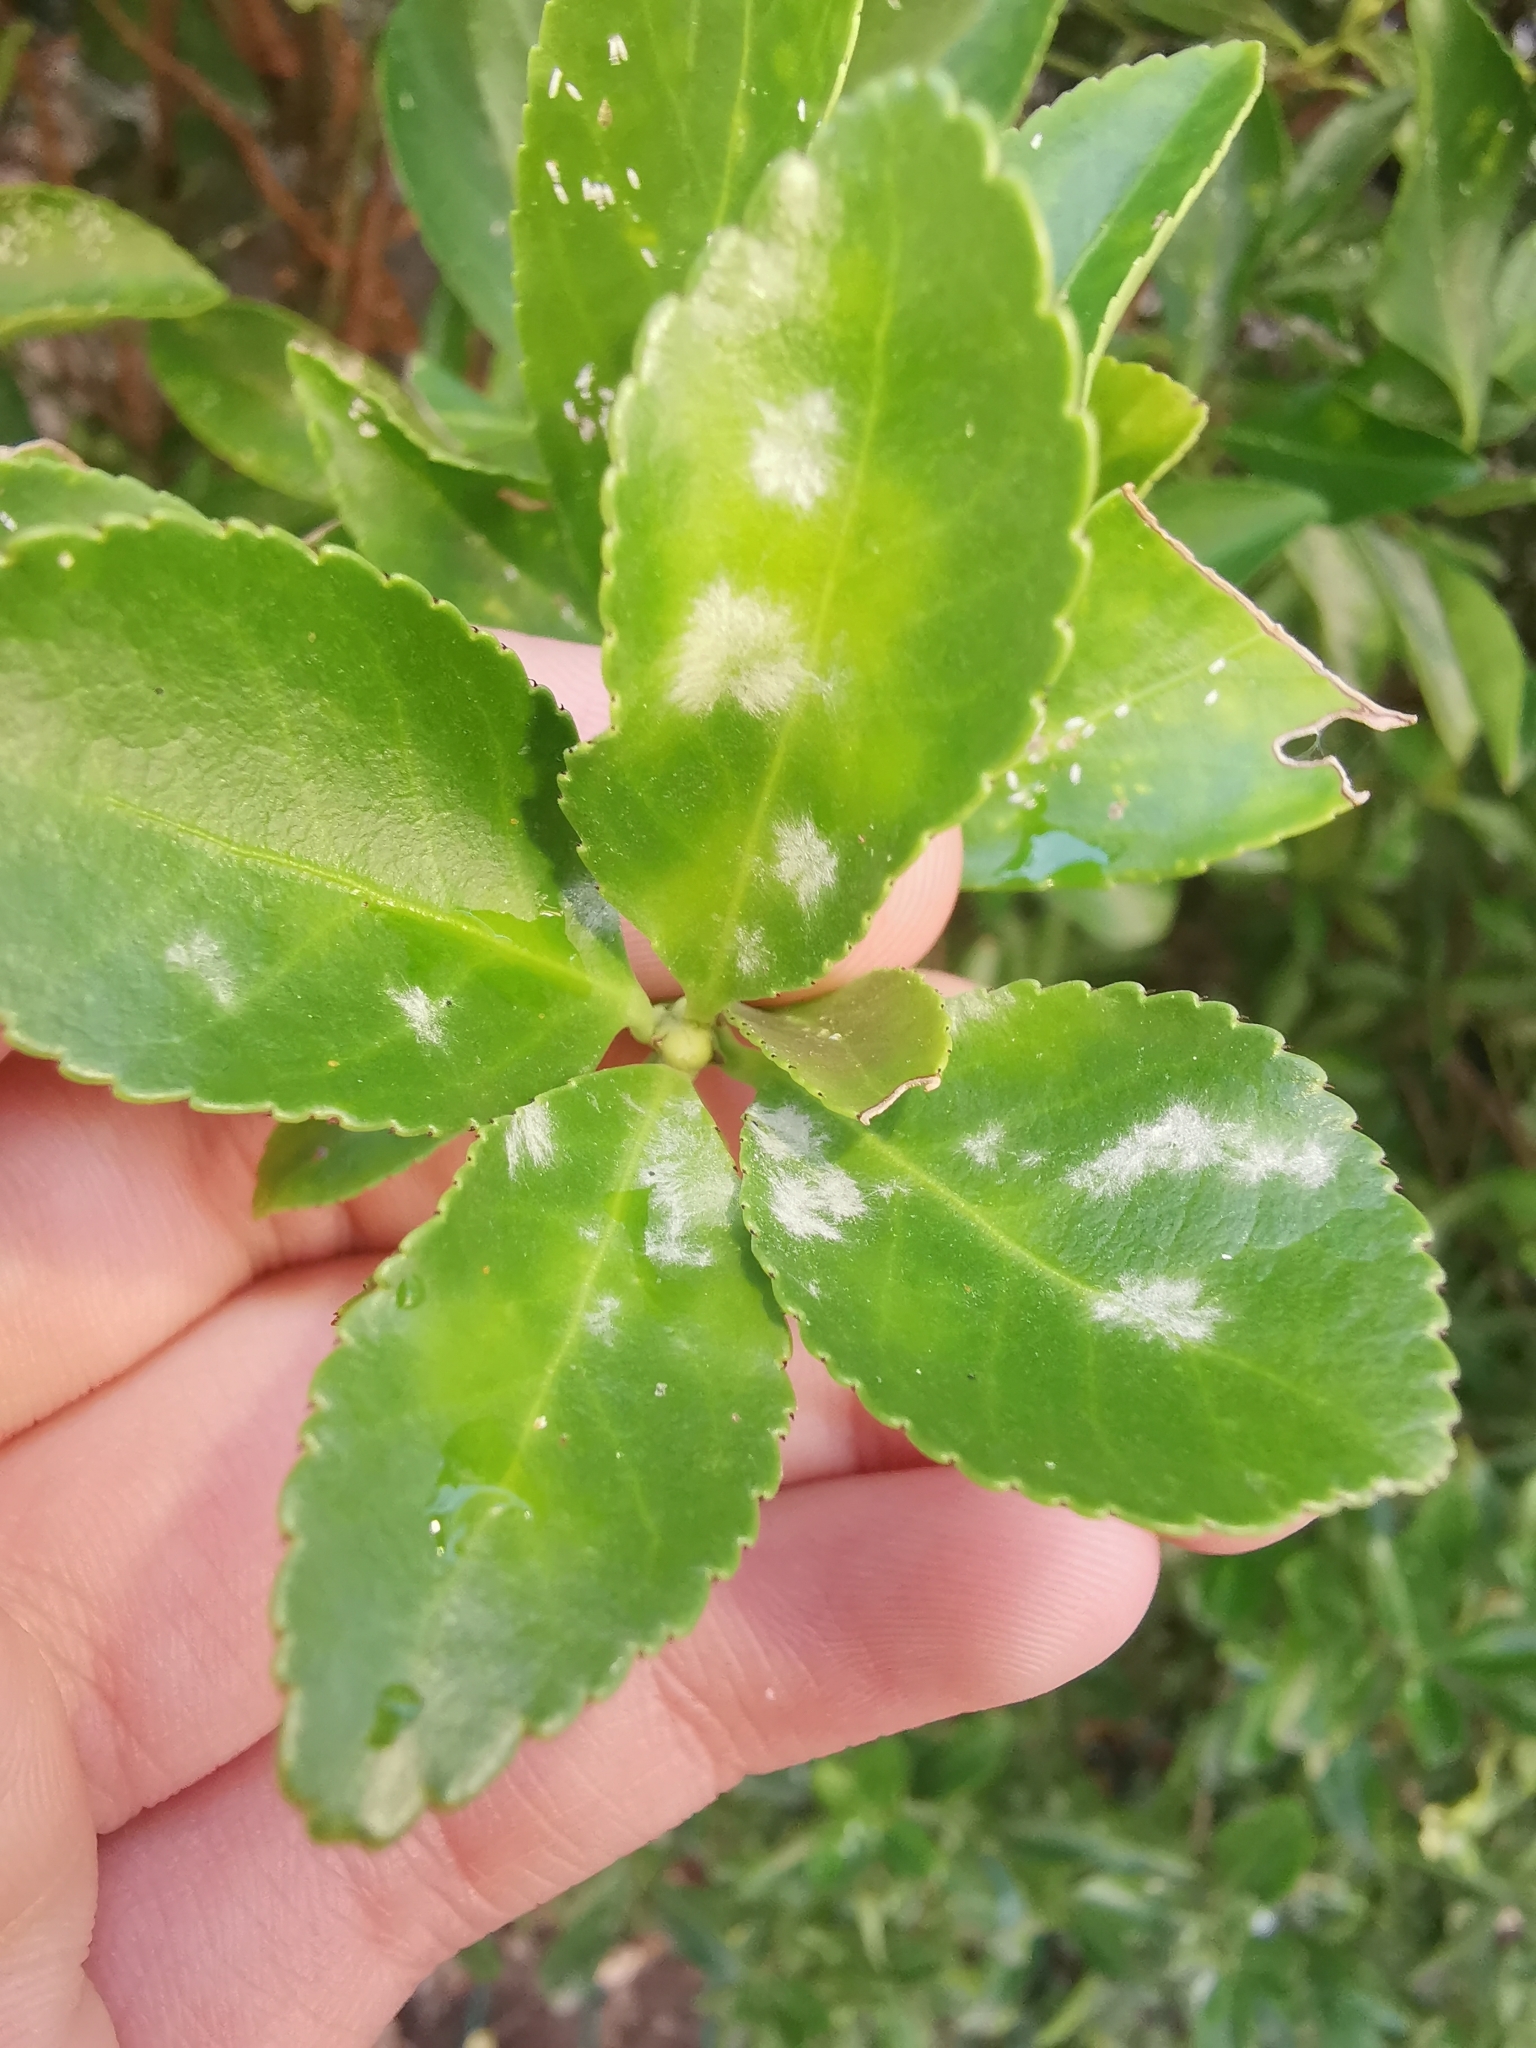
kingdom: Fungi
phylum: Ascomycota
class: Leotiomycetes
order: Helotiales
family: Erysiphaceae
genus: Erysiphe
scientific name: Erysiphe euonymicola
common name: Spindletree mildew
